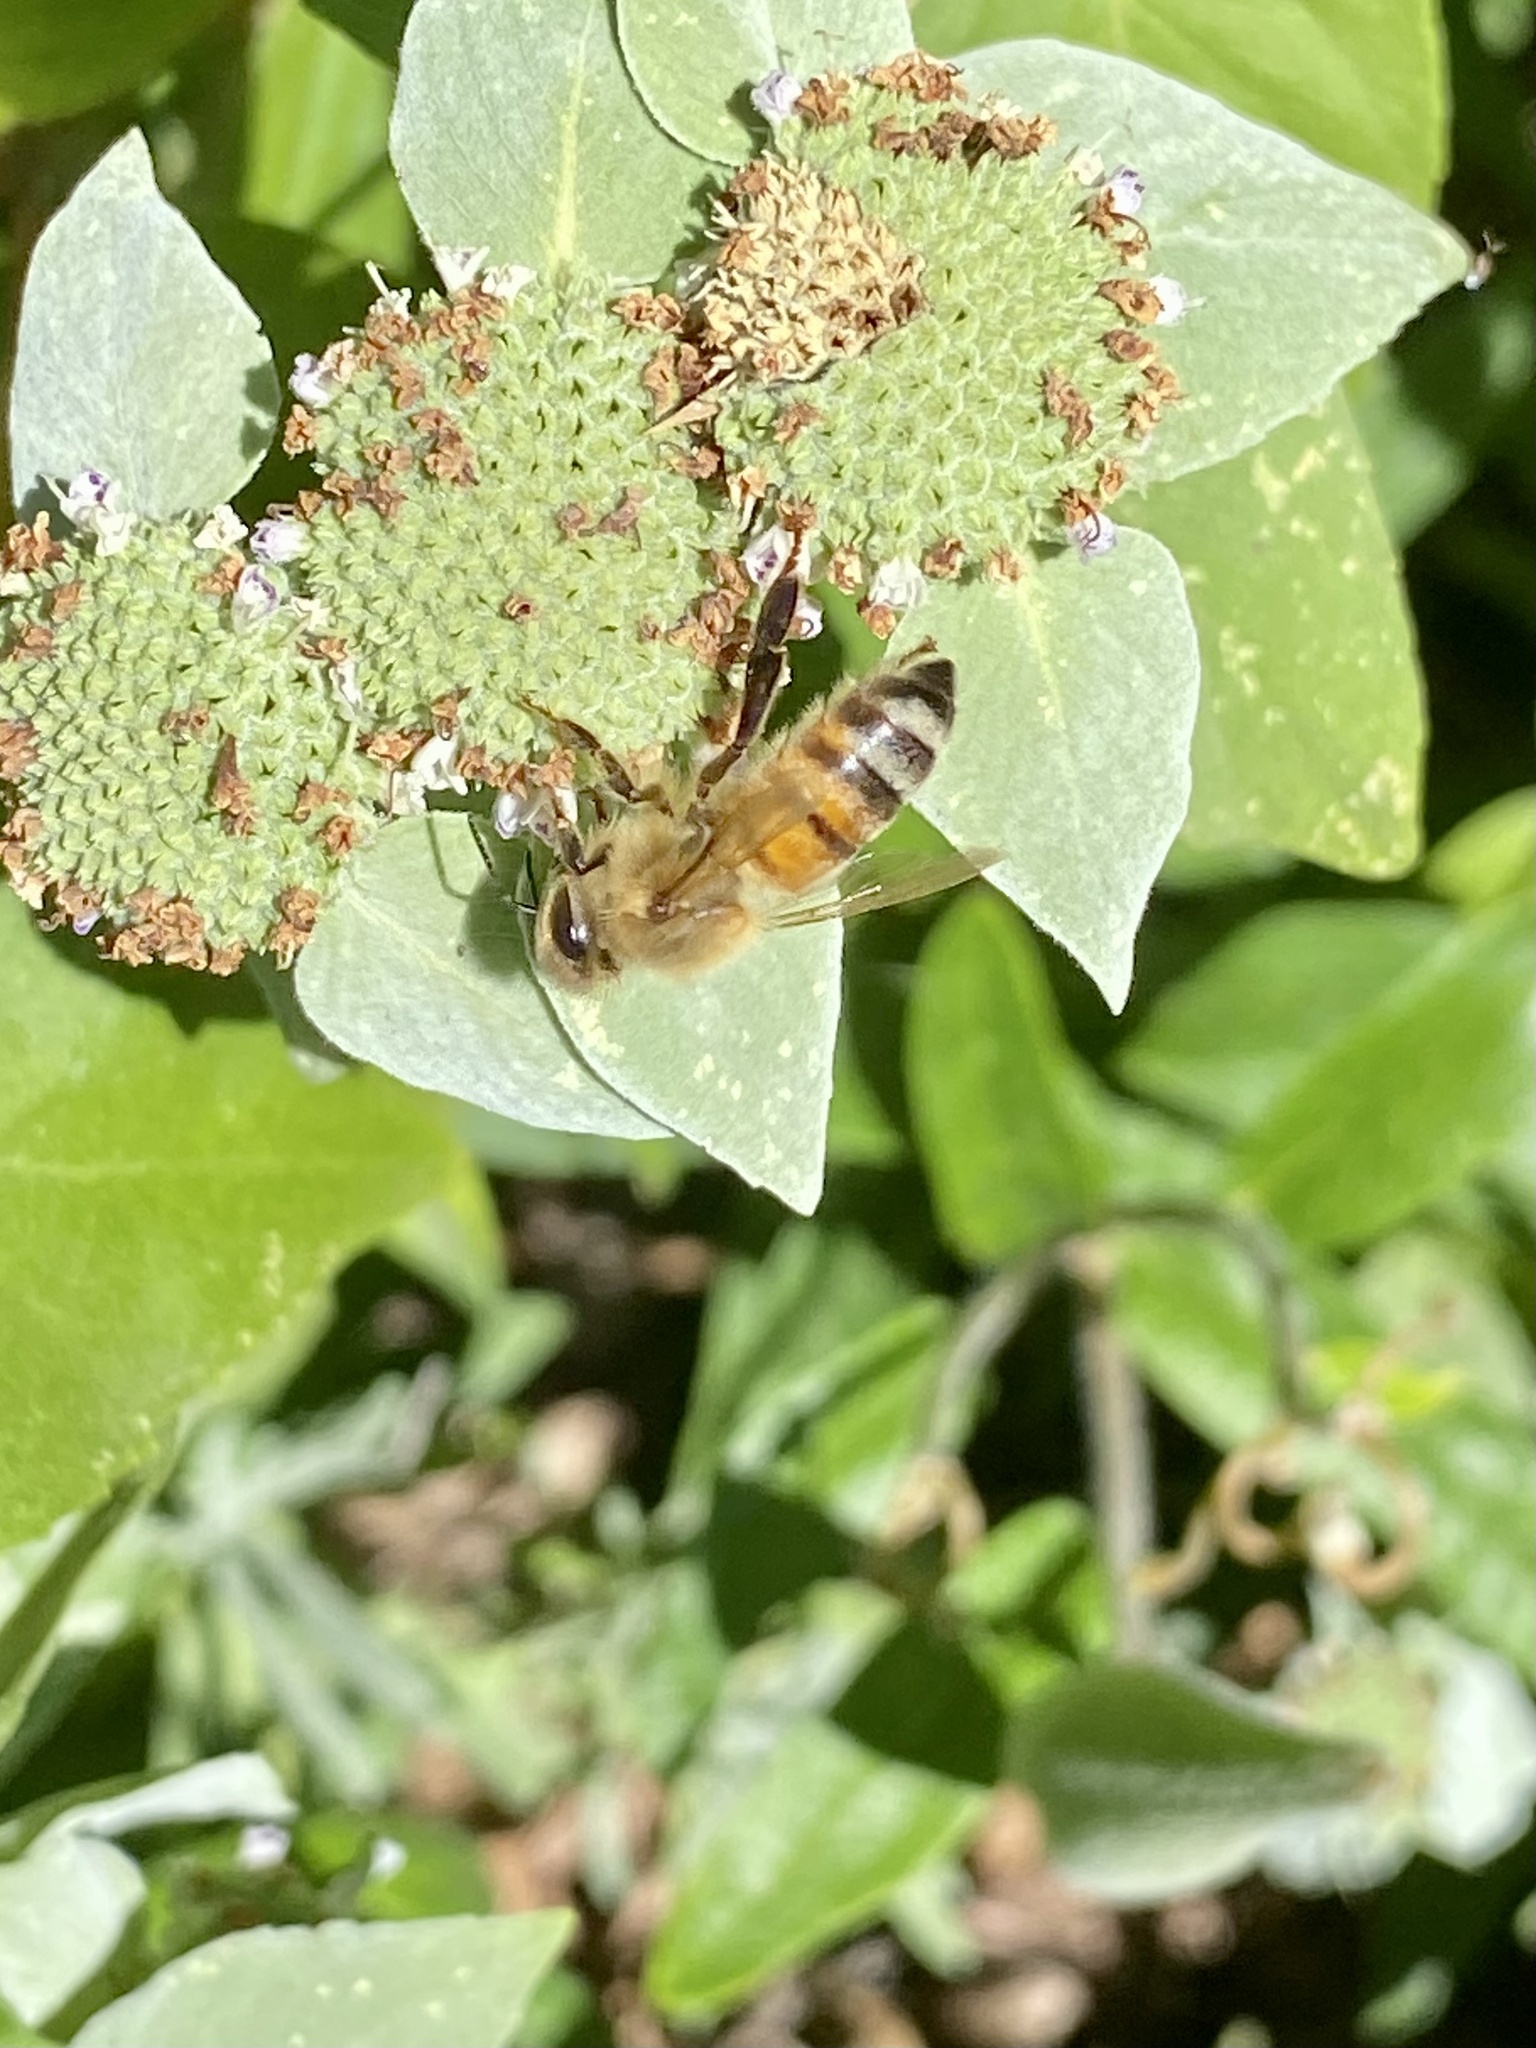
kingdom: Animalia
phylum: Arthropoda
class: Insecta
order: Hymenoptera
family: Apidae
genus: Apis
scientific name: Apis mellifera
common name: Honey bee
